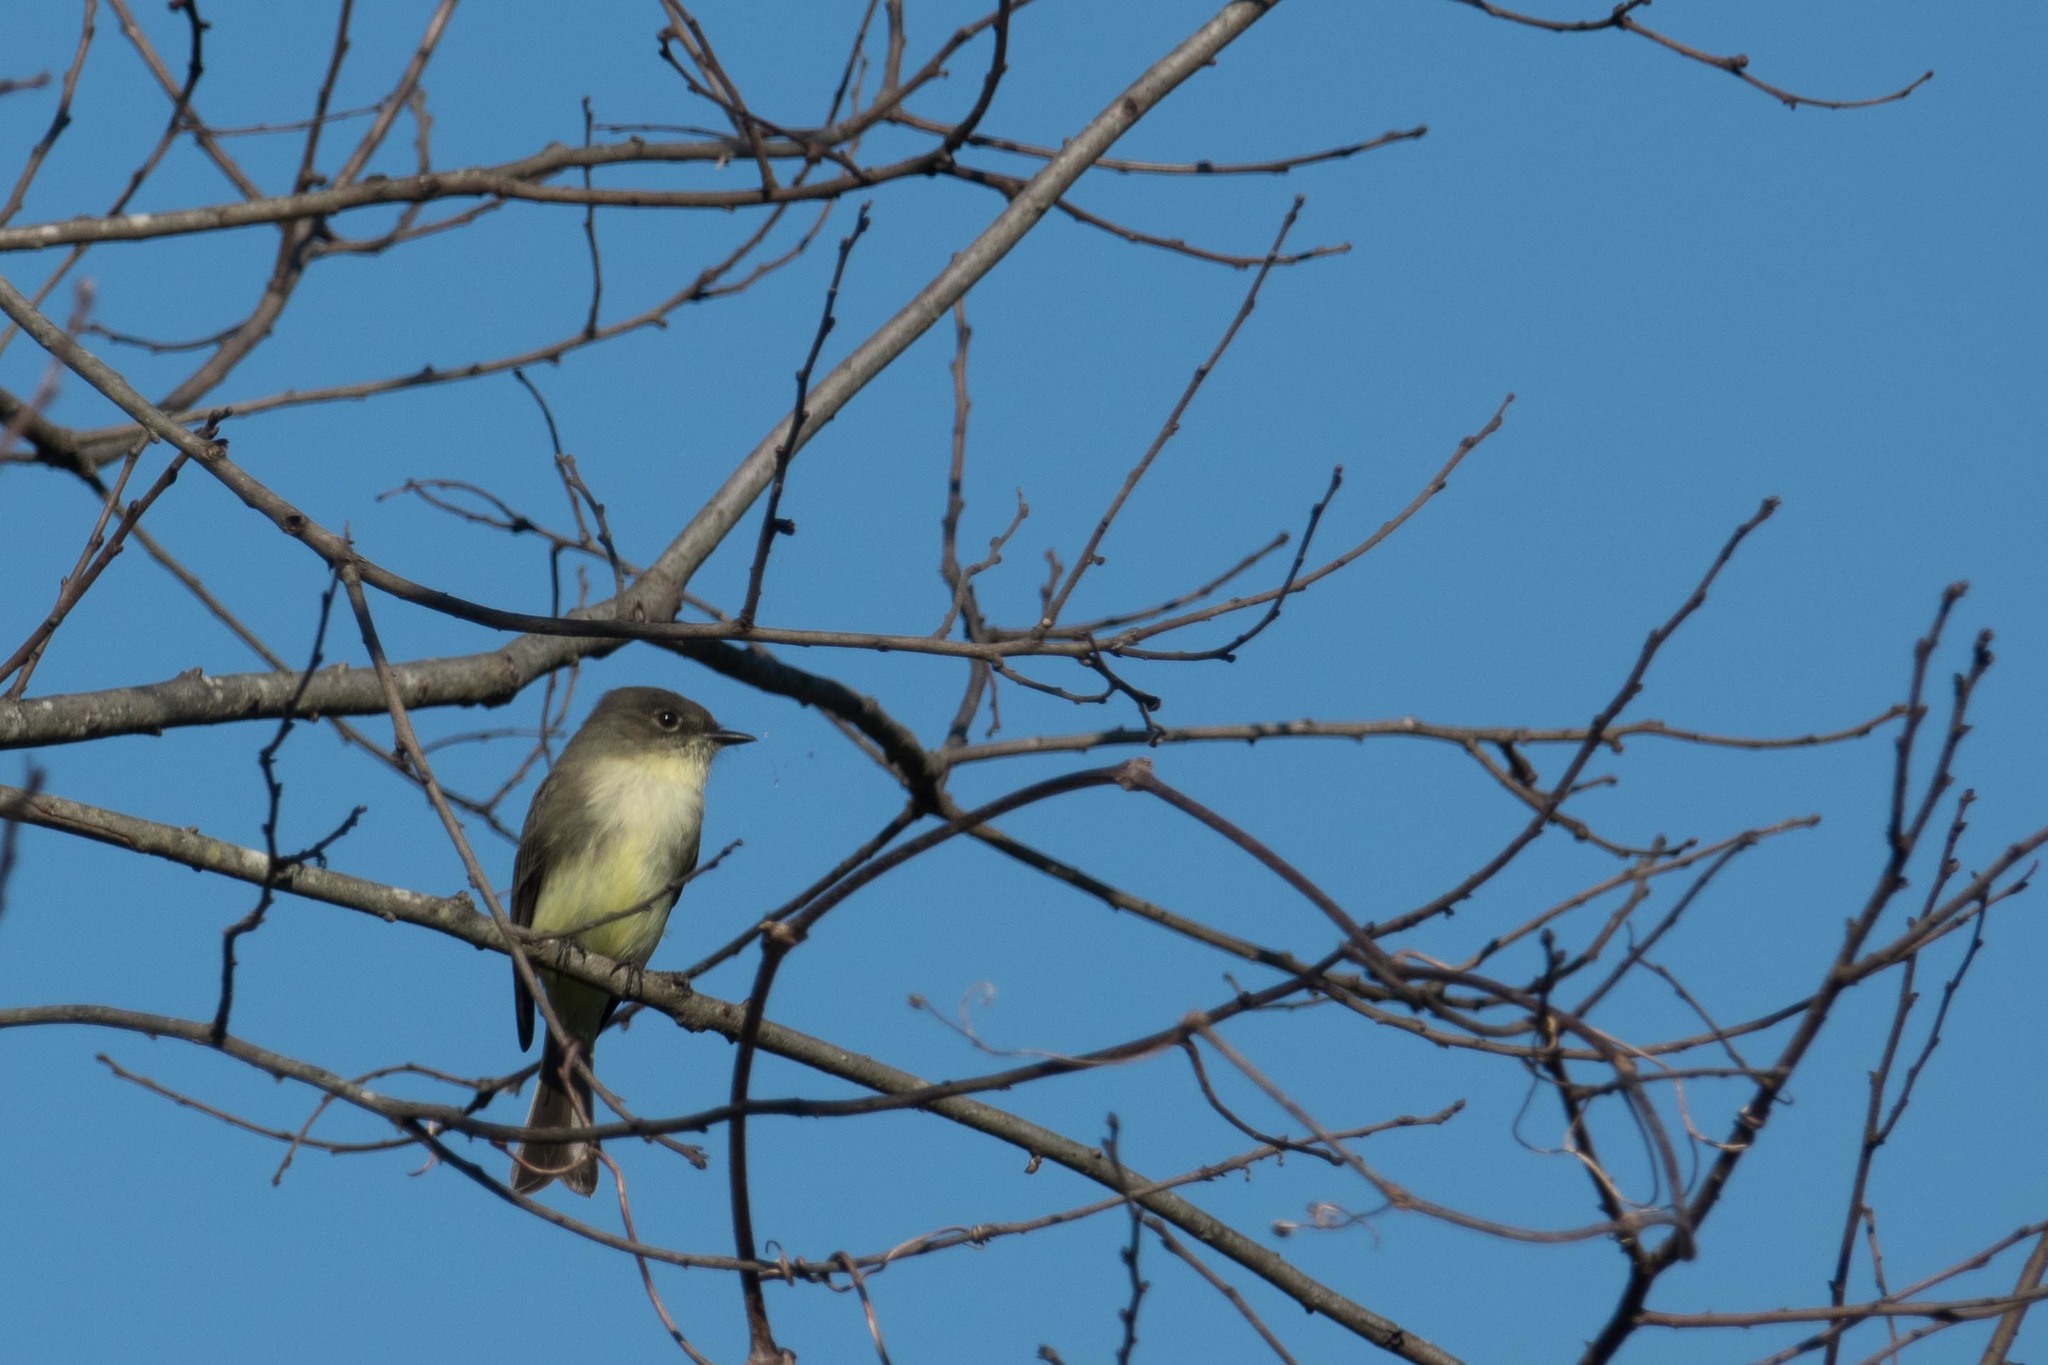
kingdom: Animalia
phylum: Chordata
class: Aves
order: Passeriformes
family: Tyrannidae
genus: Sayornis
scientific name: Sayornis phoebe
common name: Eastern phoebe
